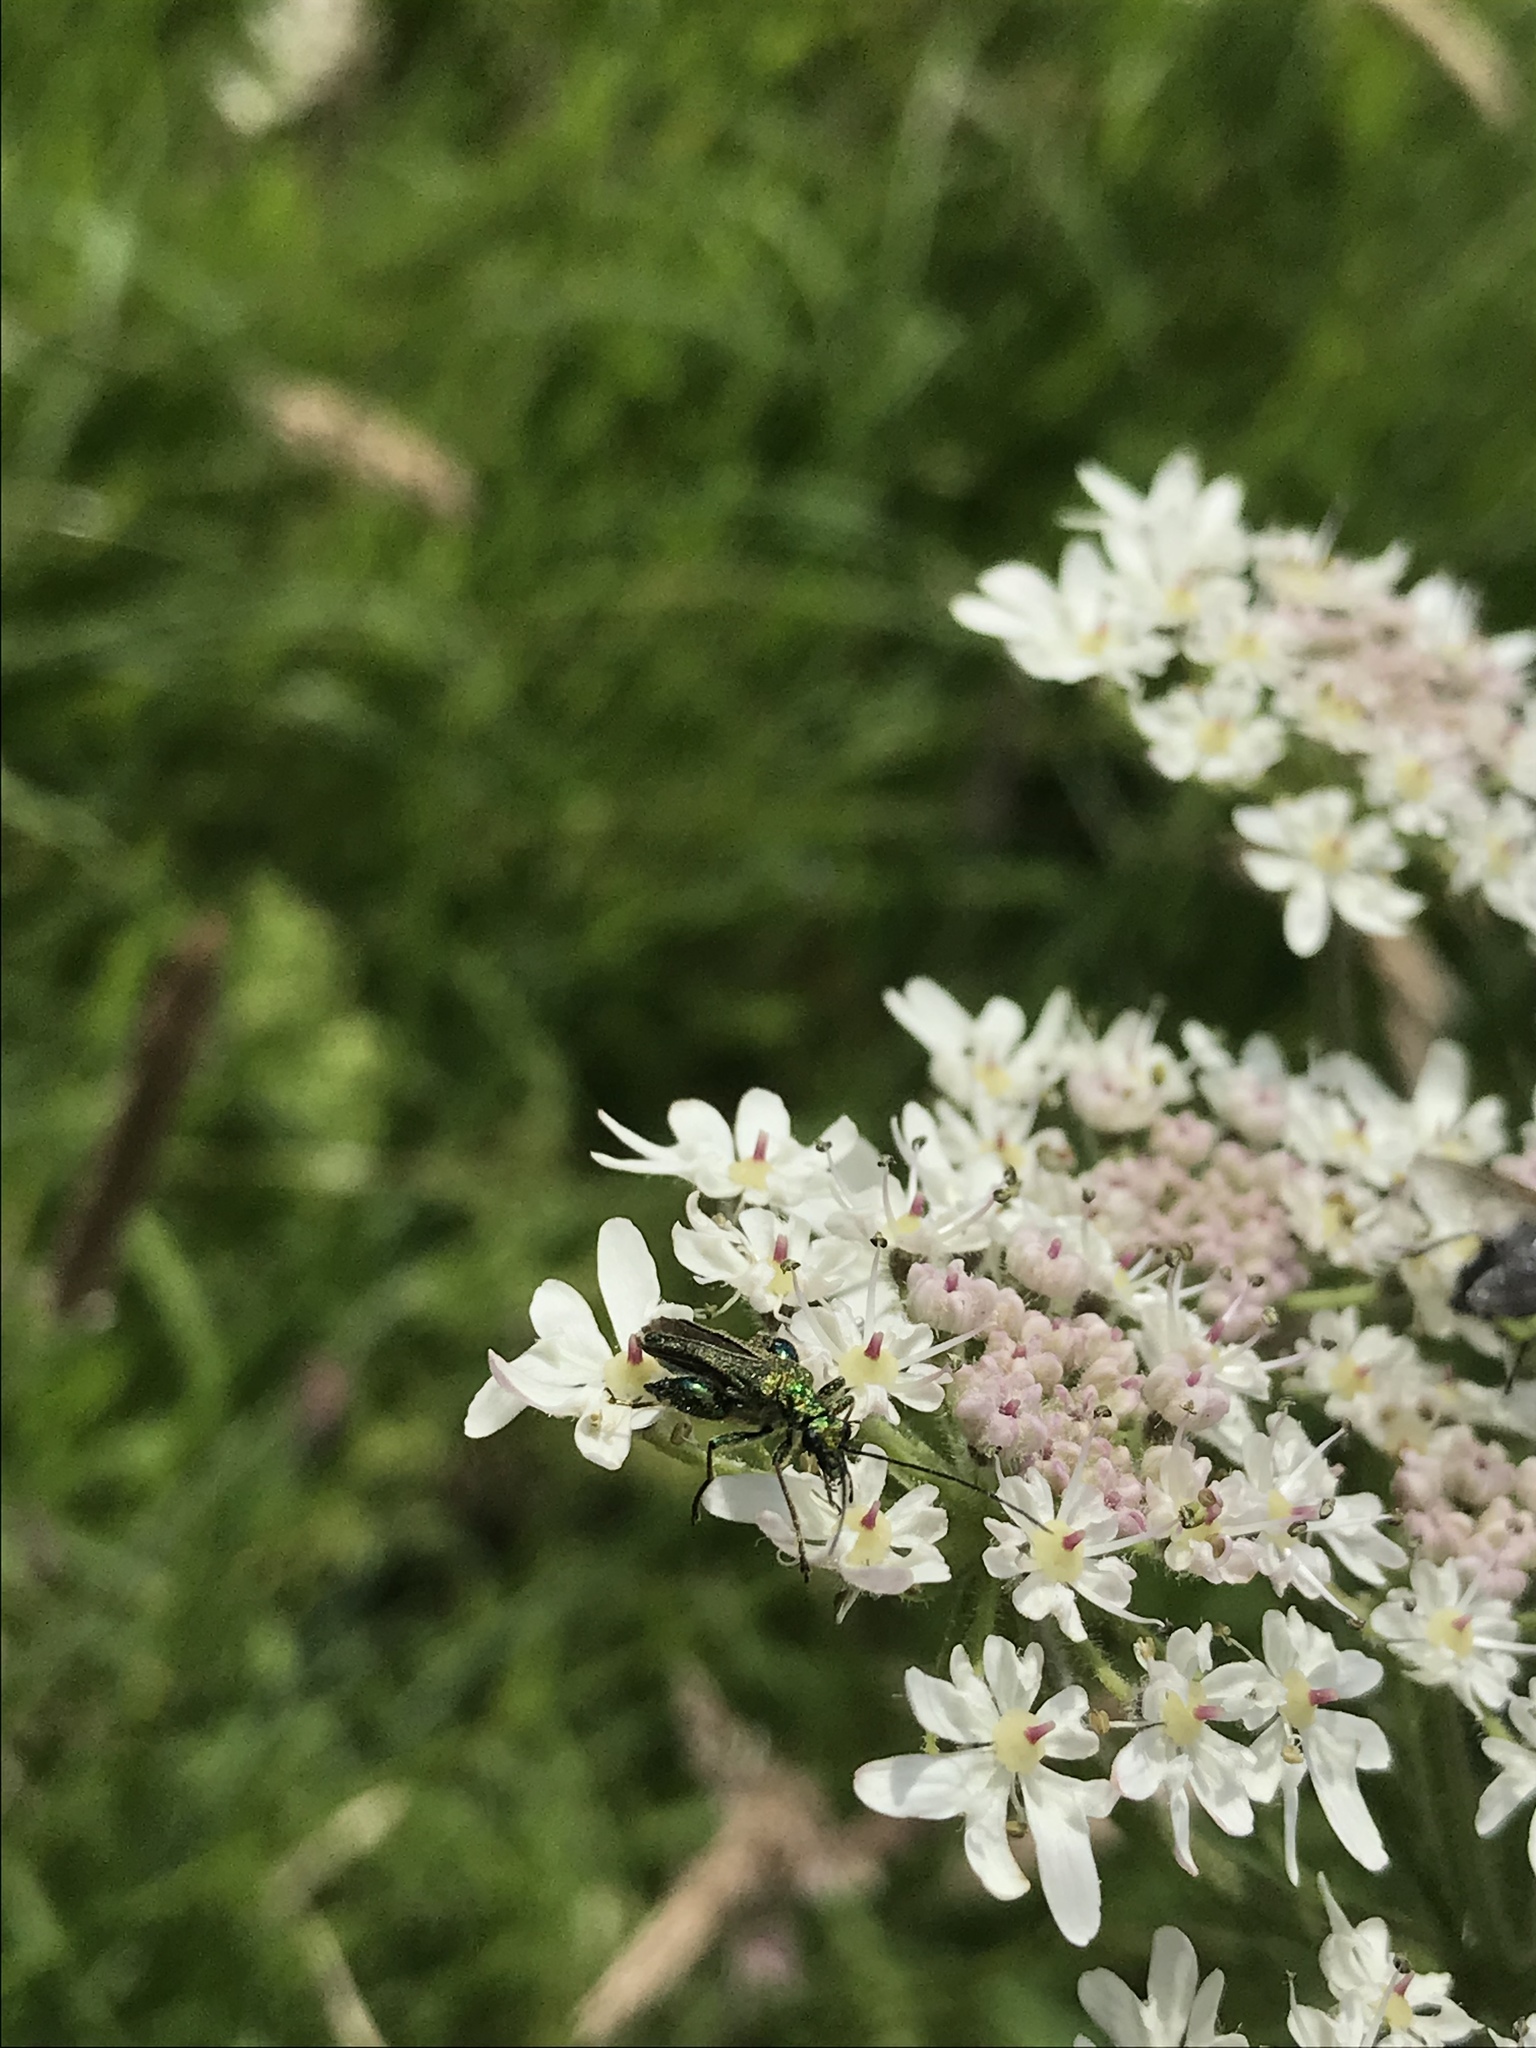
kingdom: Animalia
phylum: Arthropoda
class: Insecta
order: Coleoptera
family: Oedemeridae
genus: Oedemera
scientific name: Oedemera nobilis
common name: Swollen-thighed beetle
